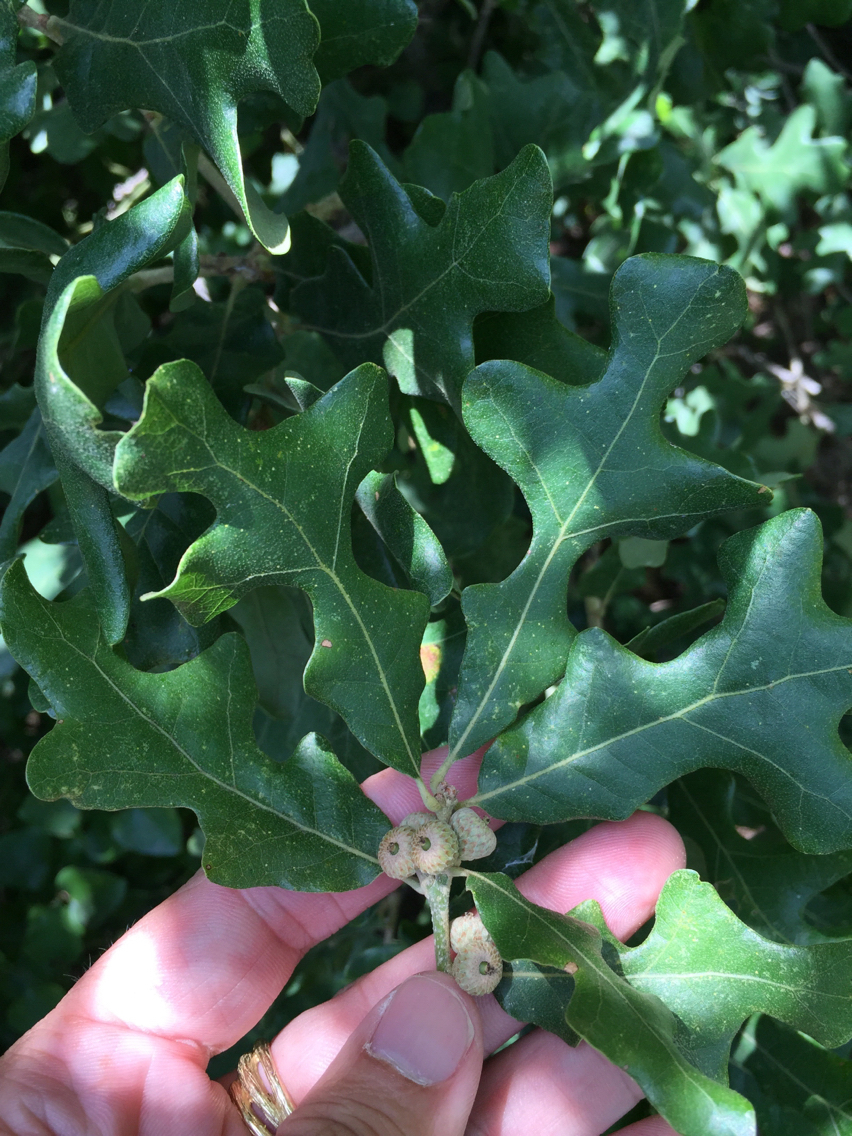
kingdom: Plantae
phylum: Tracheophyta
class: Magnoliopsida
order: Fagales
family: Fagaceae
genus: Quercus
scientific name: Quercus stellata
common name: Post oak
